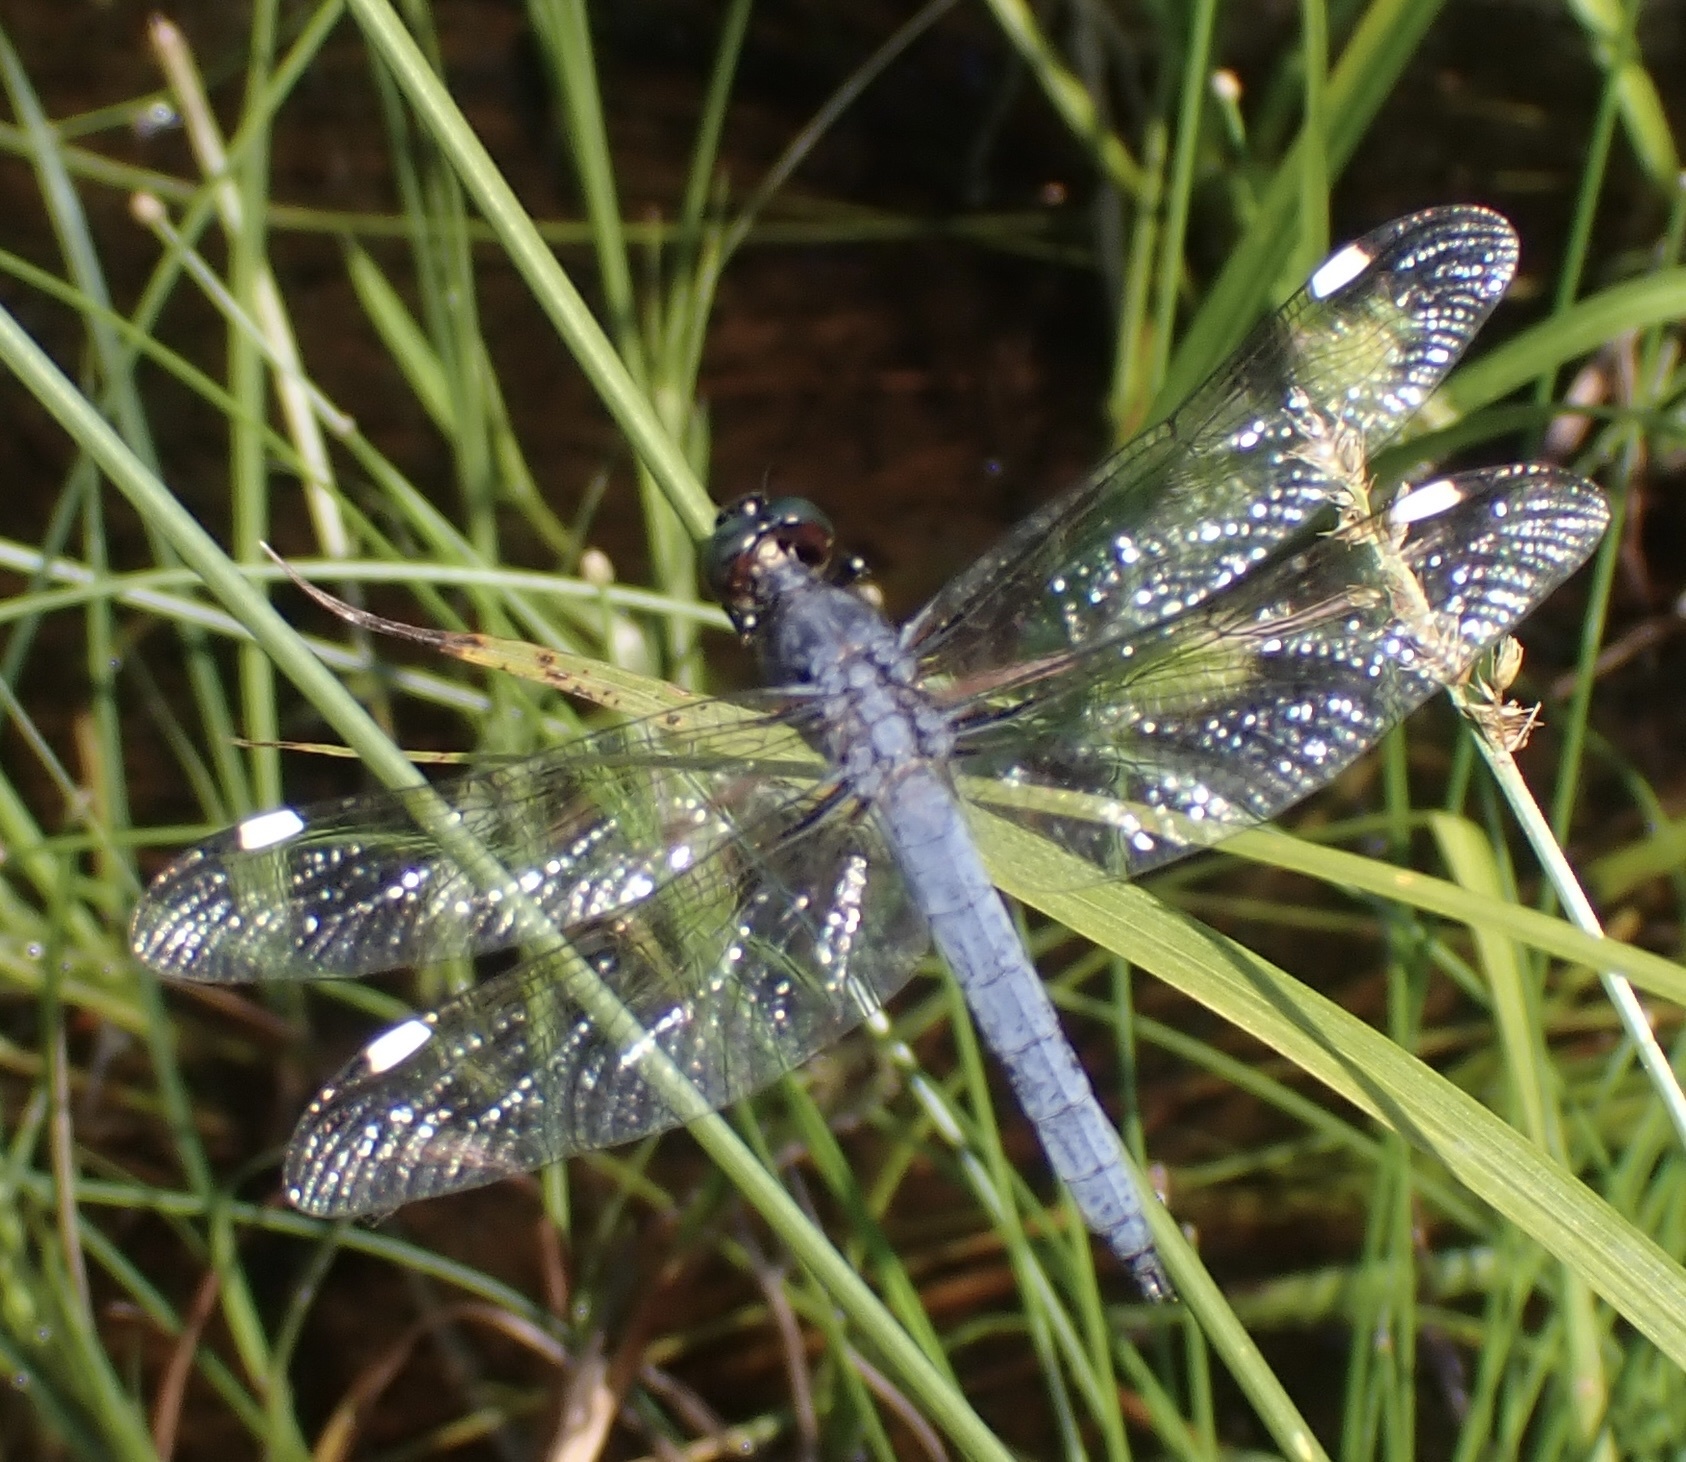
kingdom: Animalia
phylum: Arthropoda
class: Insecta
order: Odonata
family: Libellulidae
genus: Libellula
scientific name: Libellula cyanea
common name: Spangled skimmer
